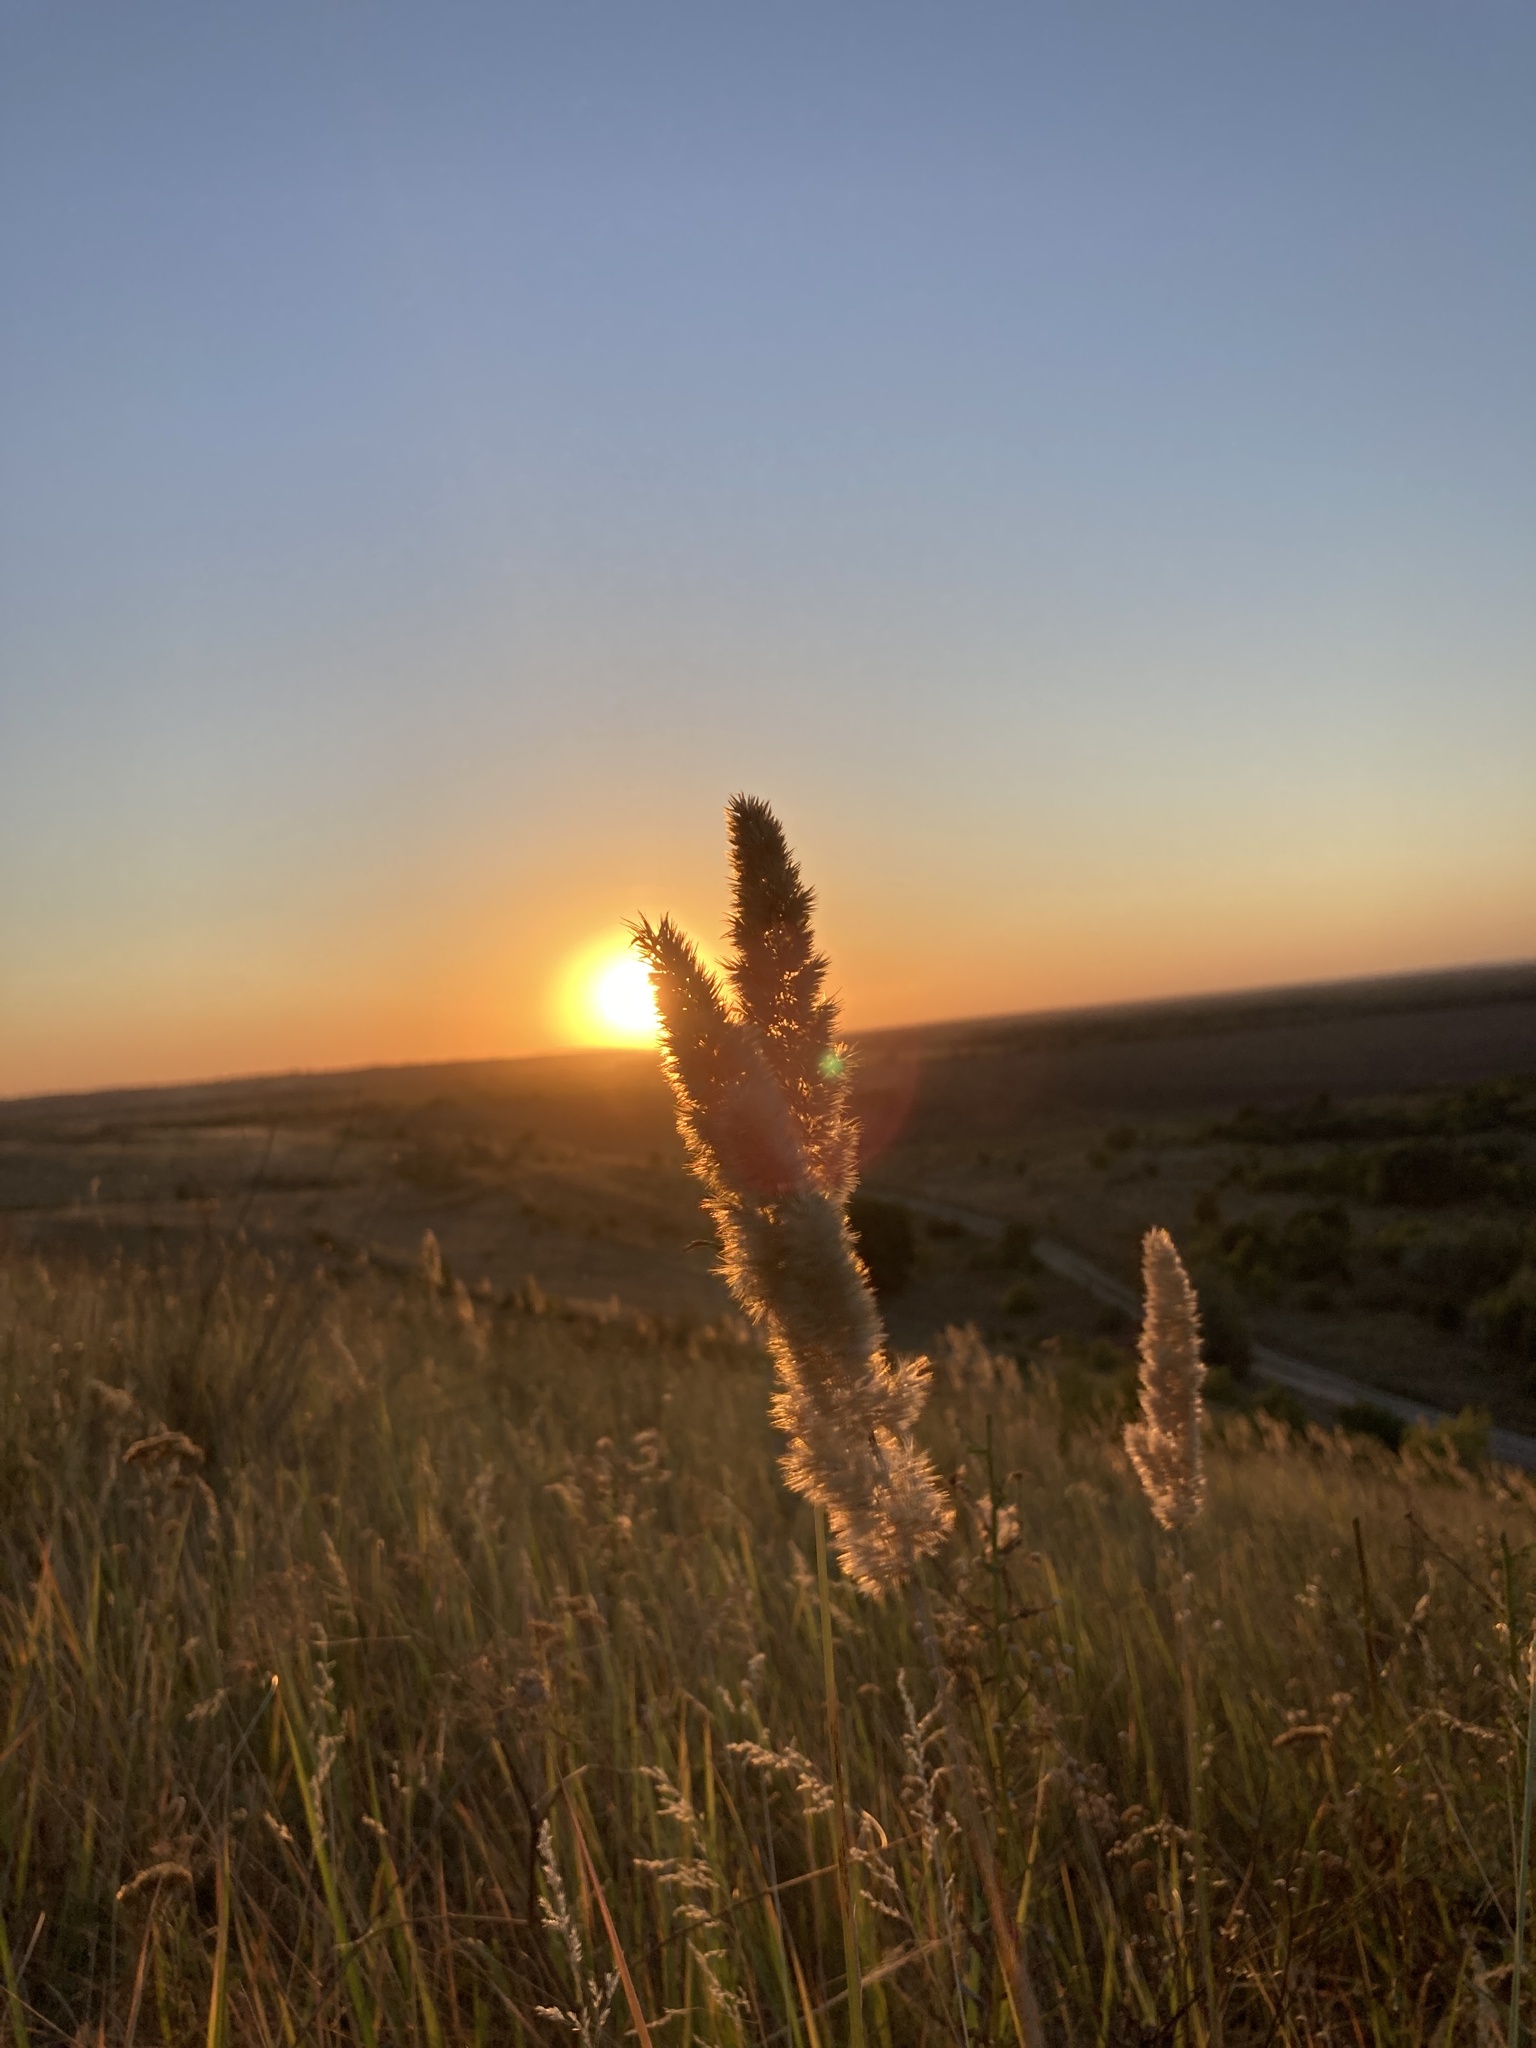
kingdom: Plantae
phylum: Tracheophyta
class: Liliopsida
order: Poales
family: Poaceae
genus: Calamagrostis
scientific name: Calamagrostis epigejos
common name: Wood small-reed
